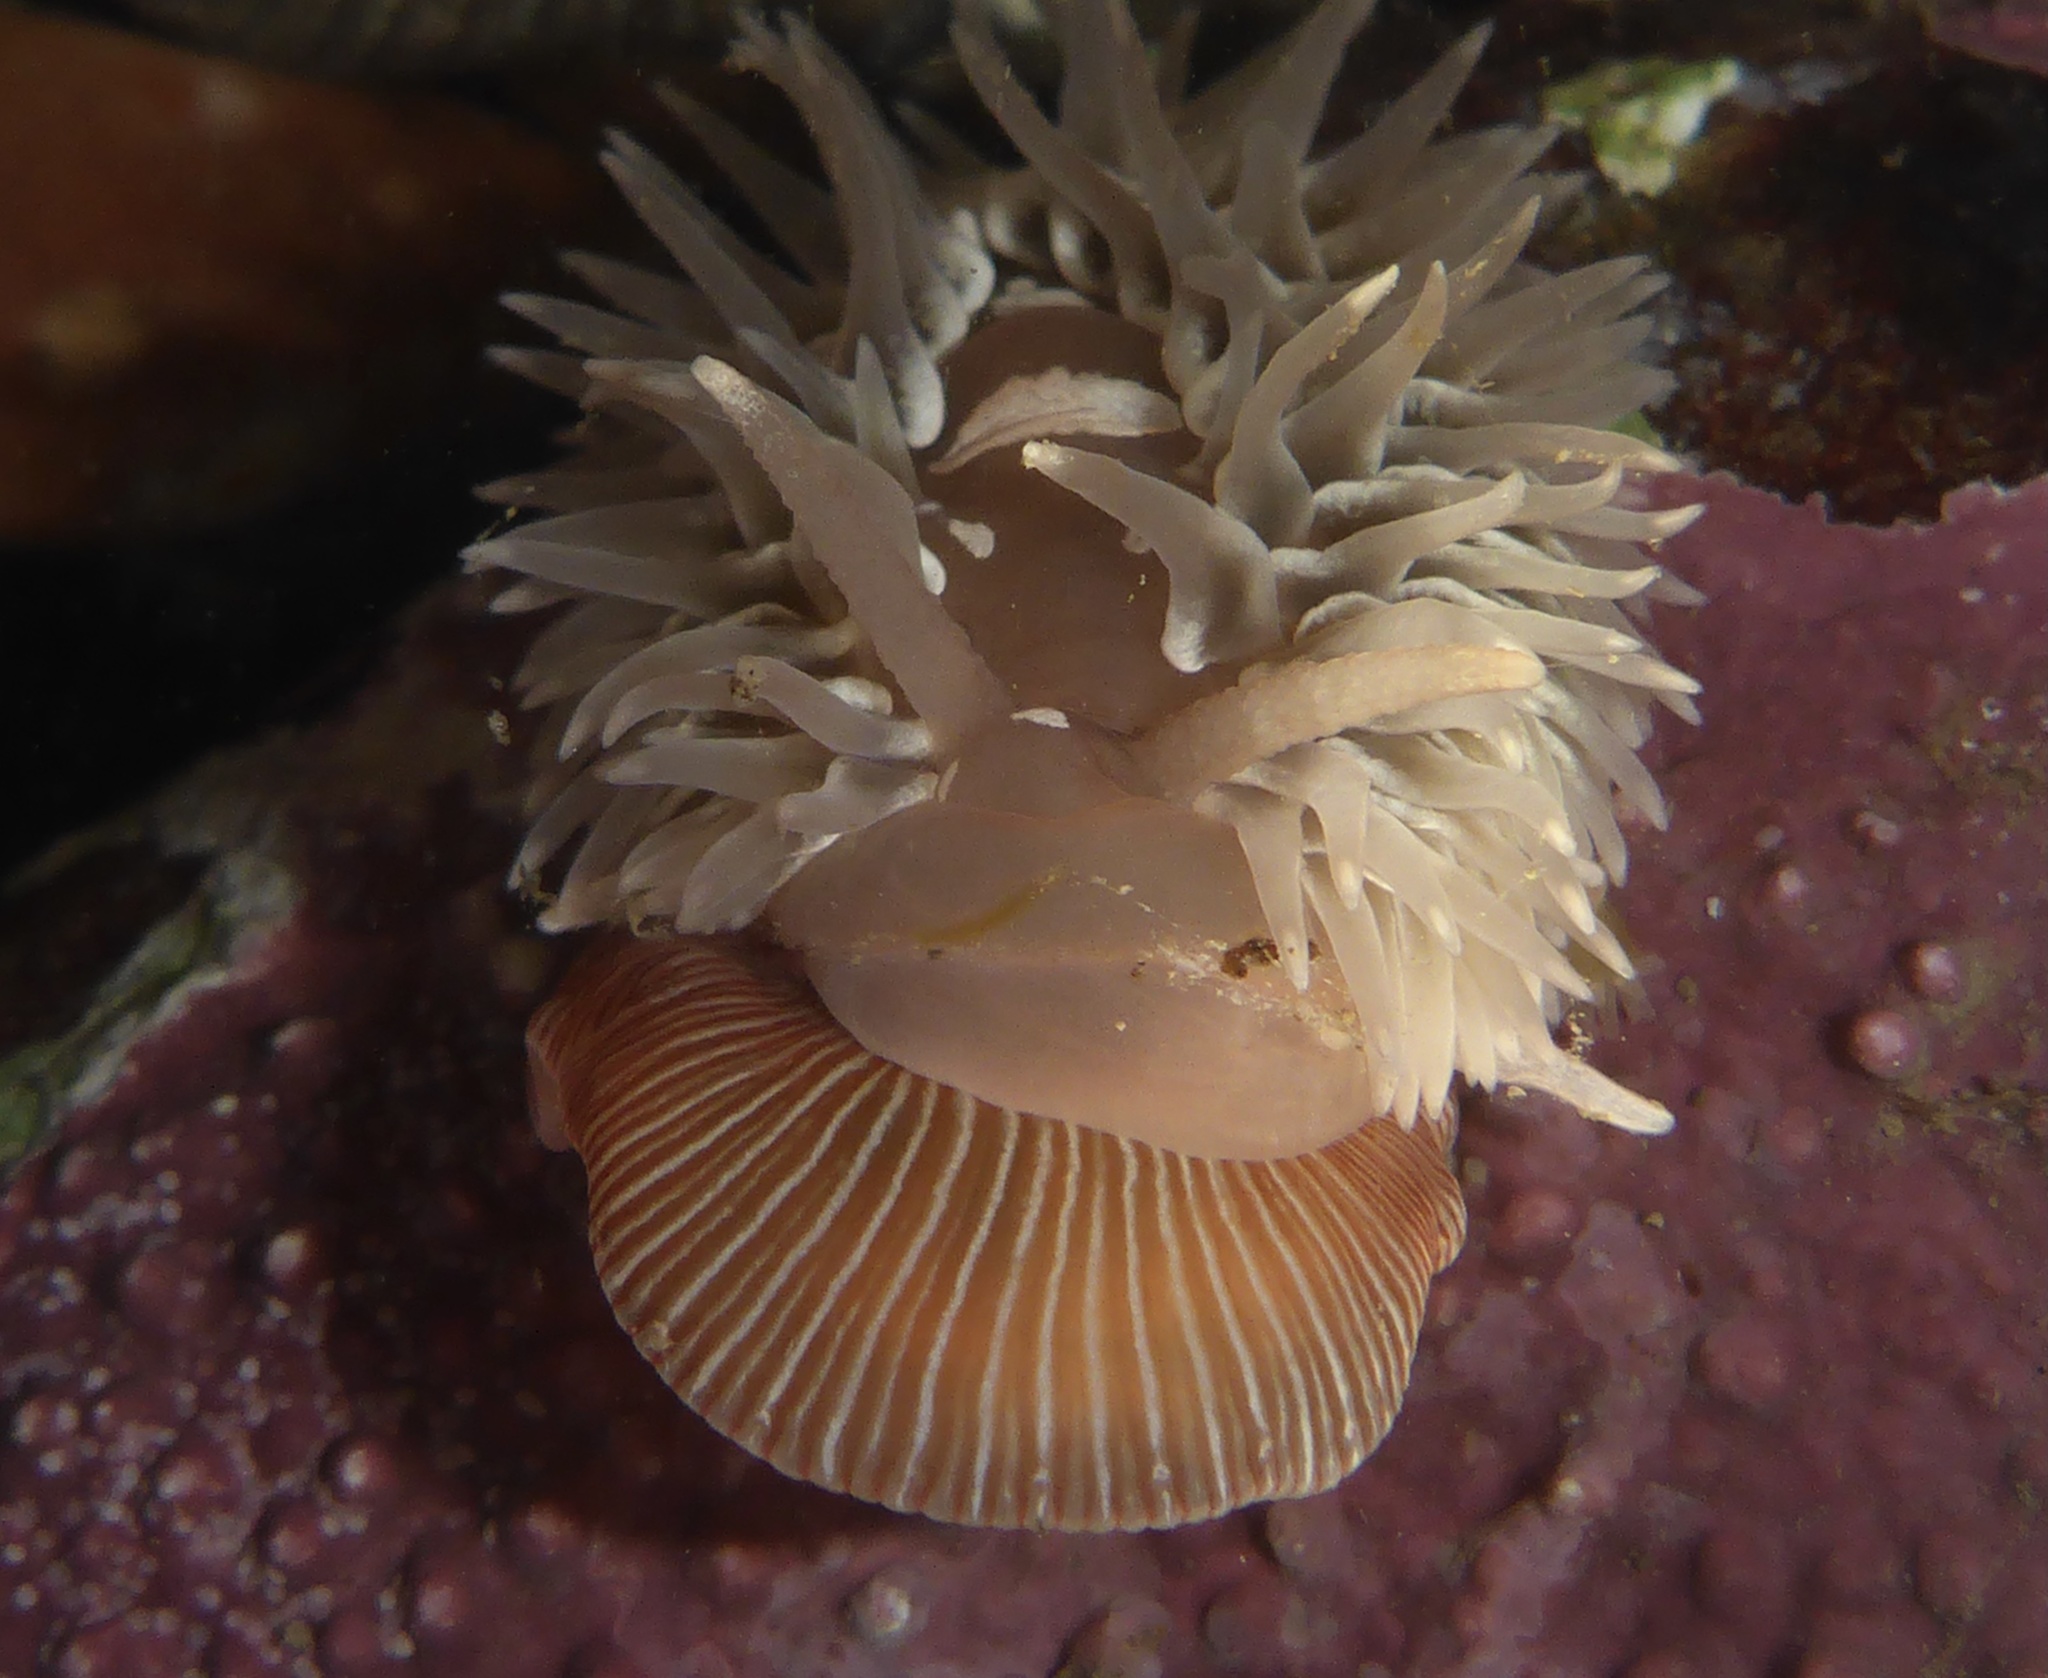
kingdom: Animalia
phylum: Mollusca
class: Gastropoda
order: Nudibranchia
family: Aeolidiidae
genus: Aeolidia
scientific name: Aeolidia loui
